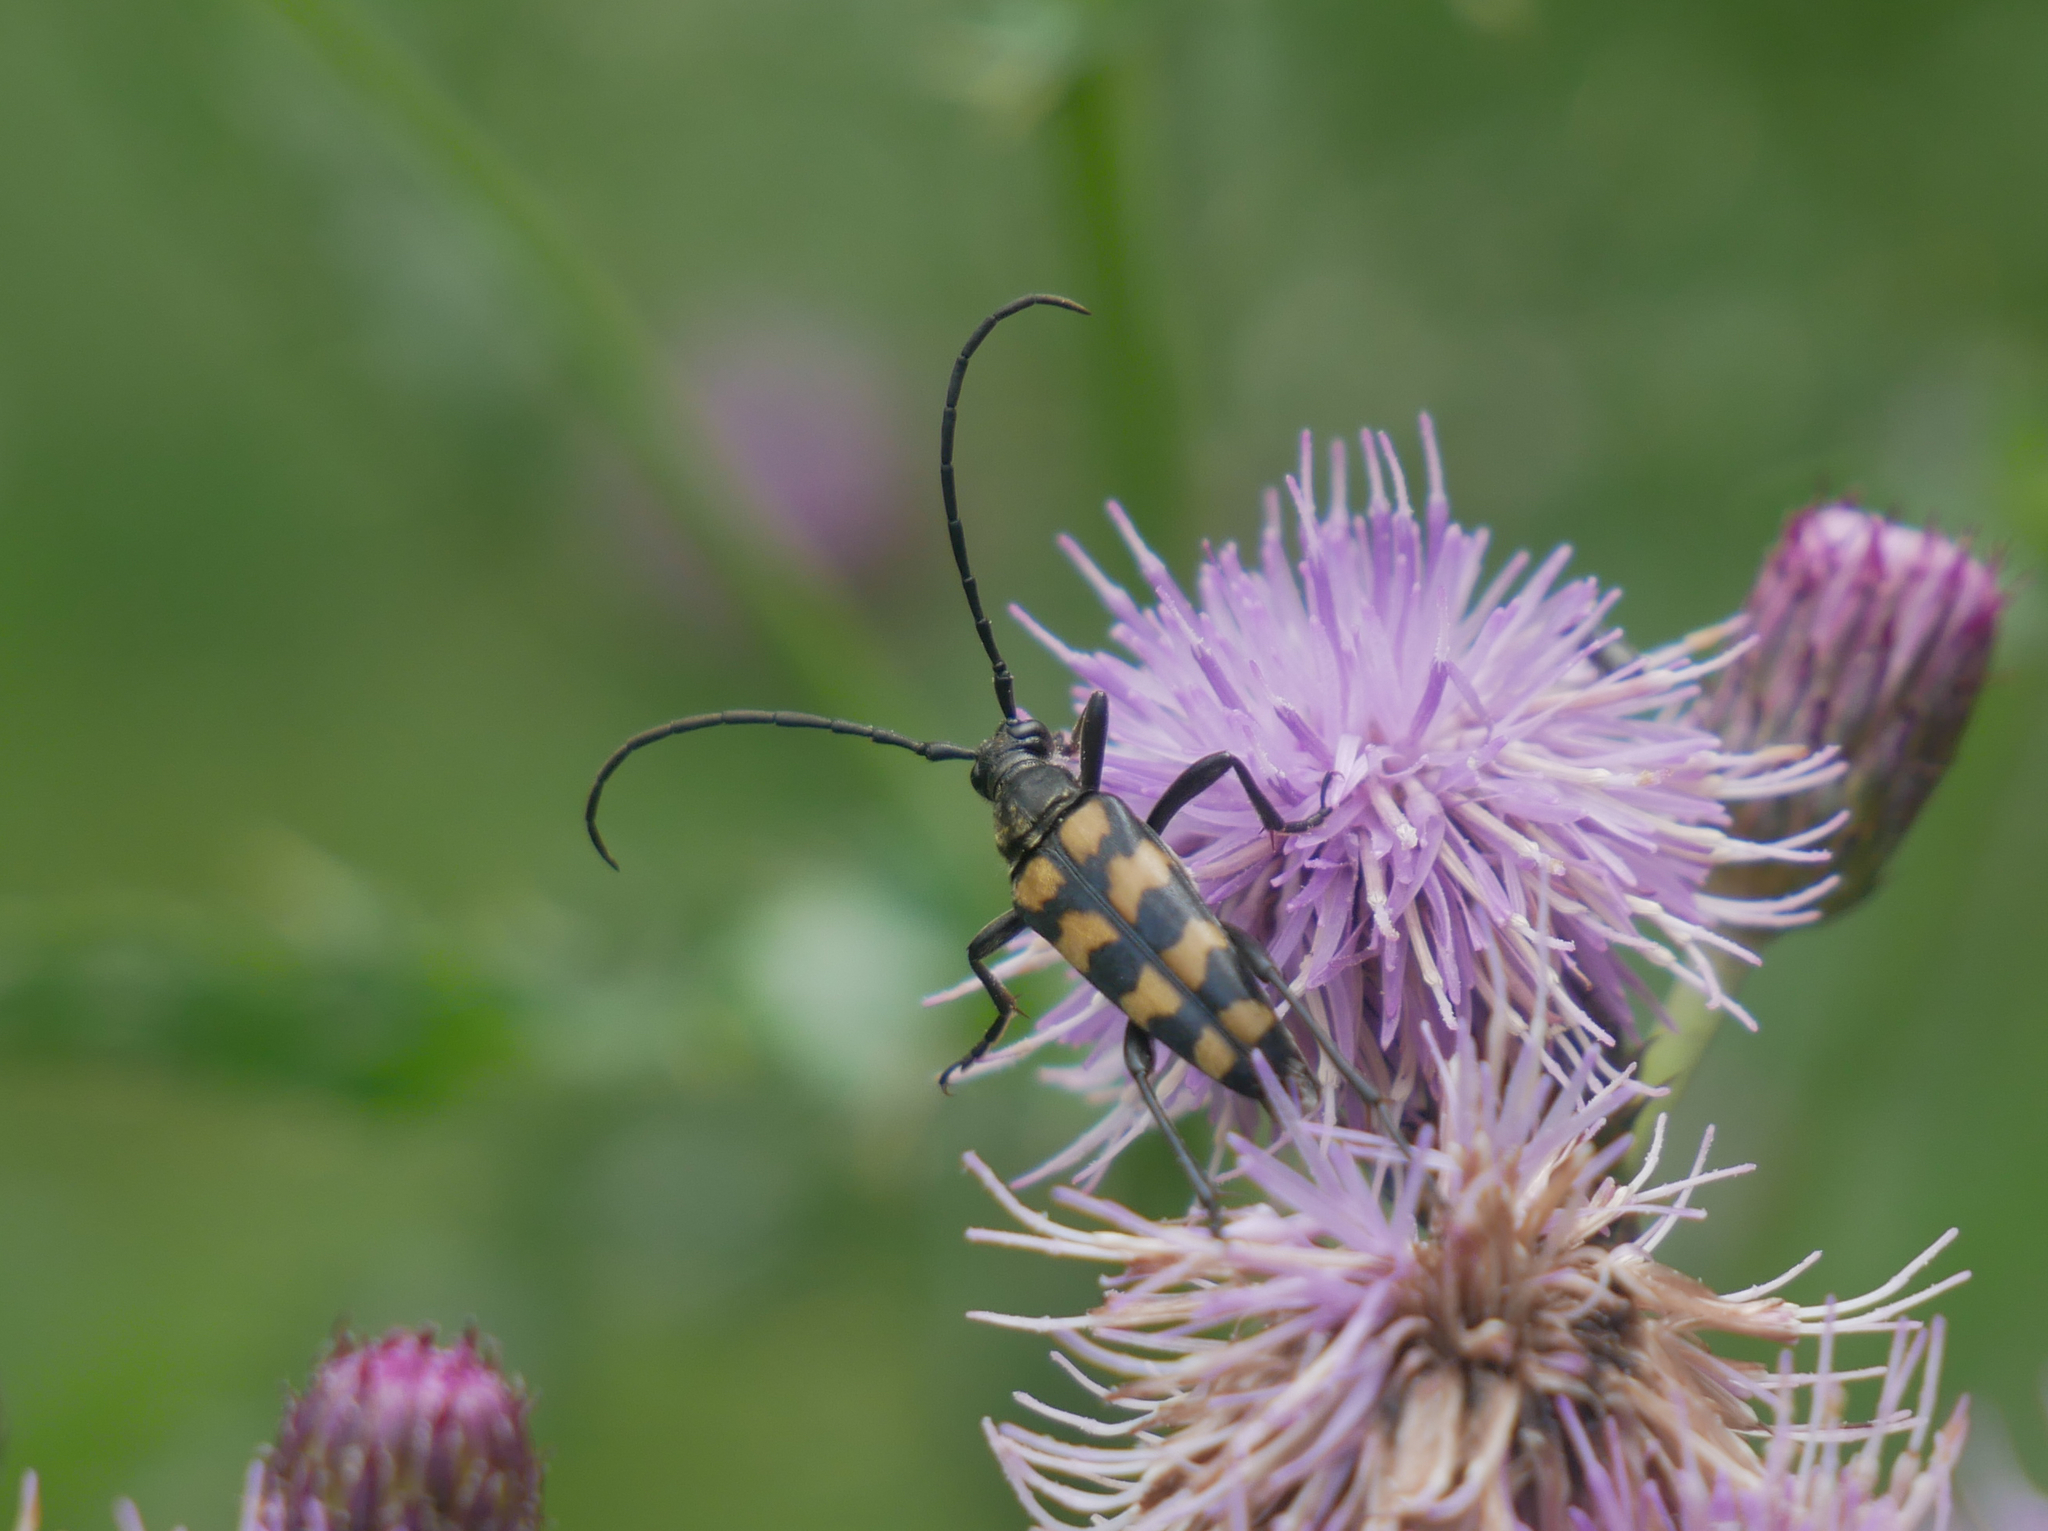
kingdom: Animalia
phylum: Arthropoda
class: Insecta
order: Coleoptera
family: Cerambycidae
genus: Leptura
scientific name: Leptura quadrifasciata
